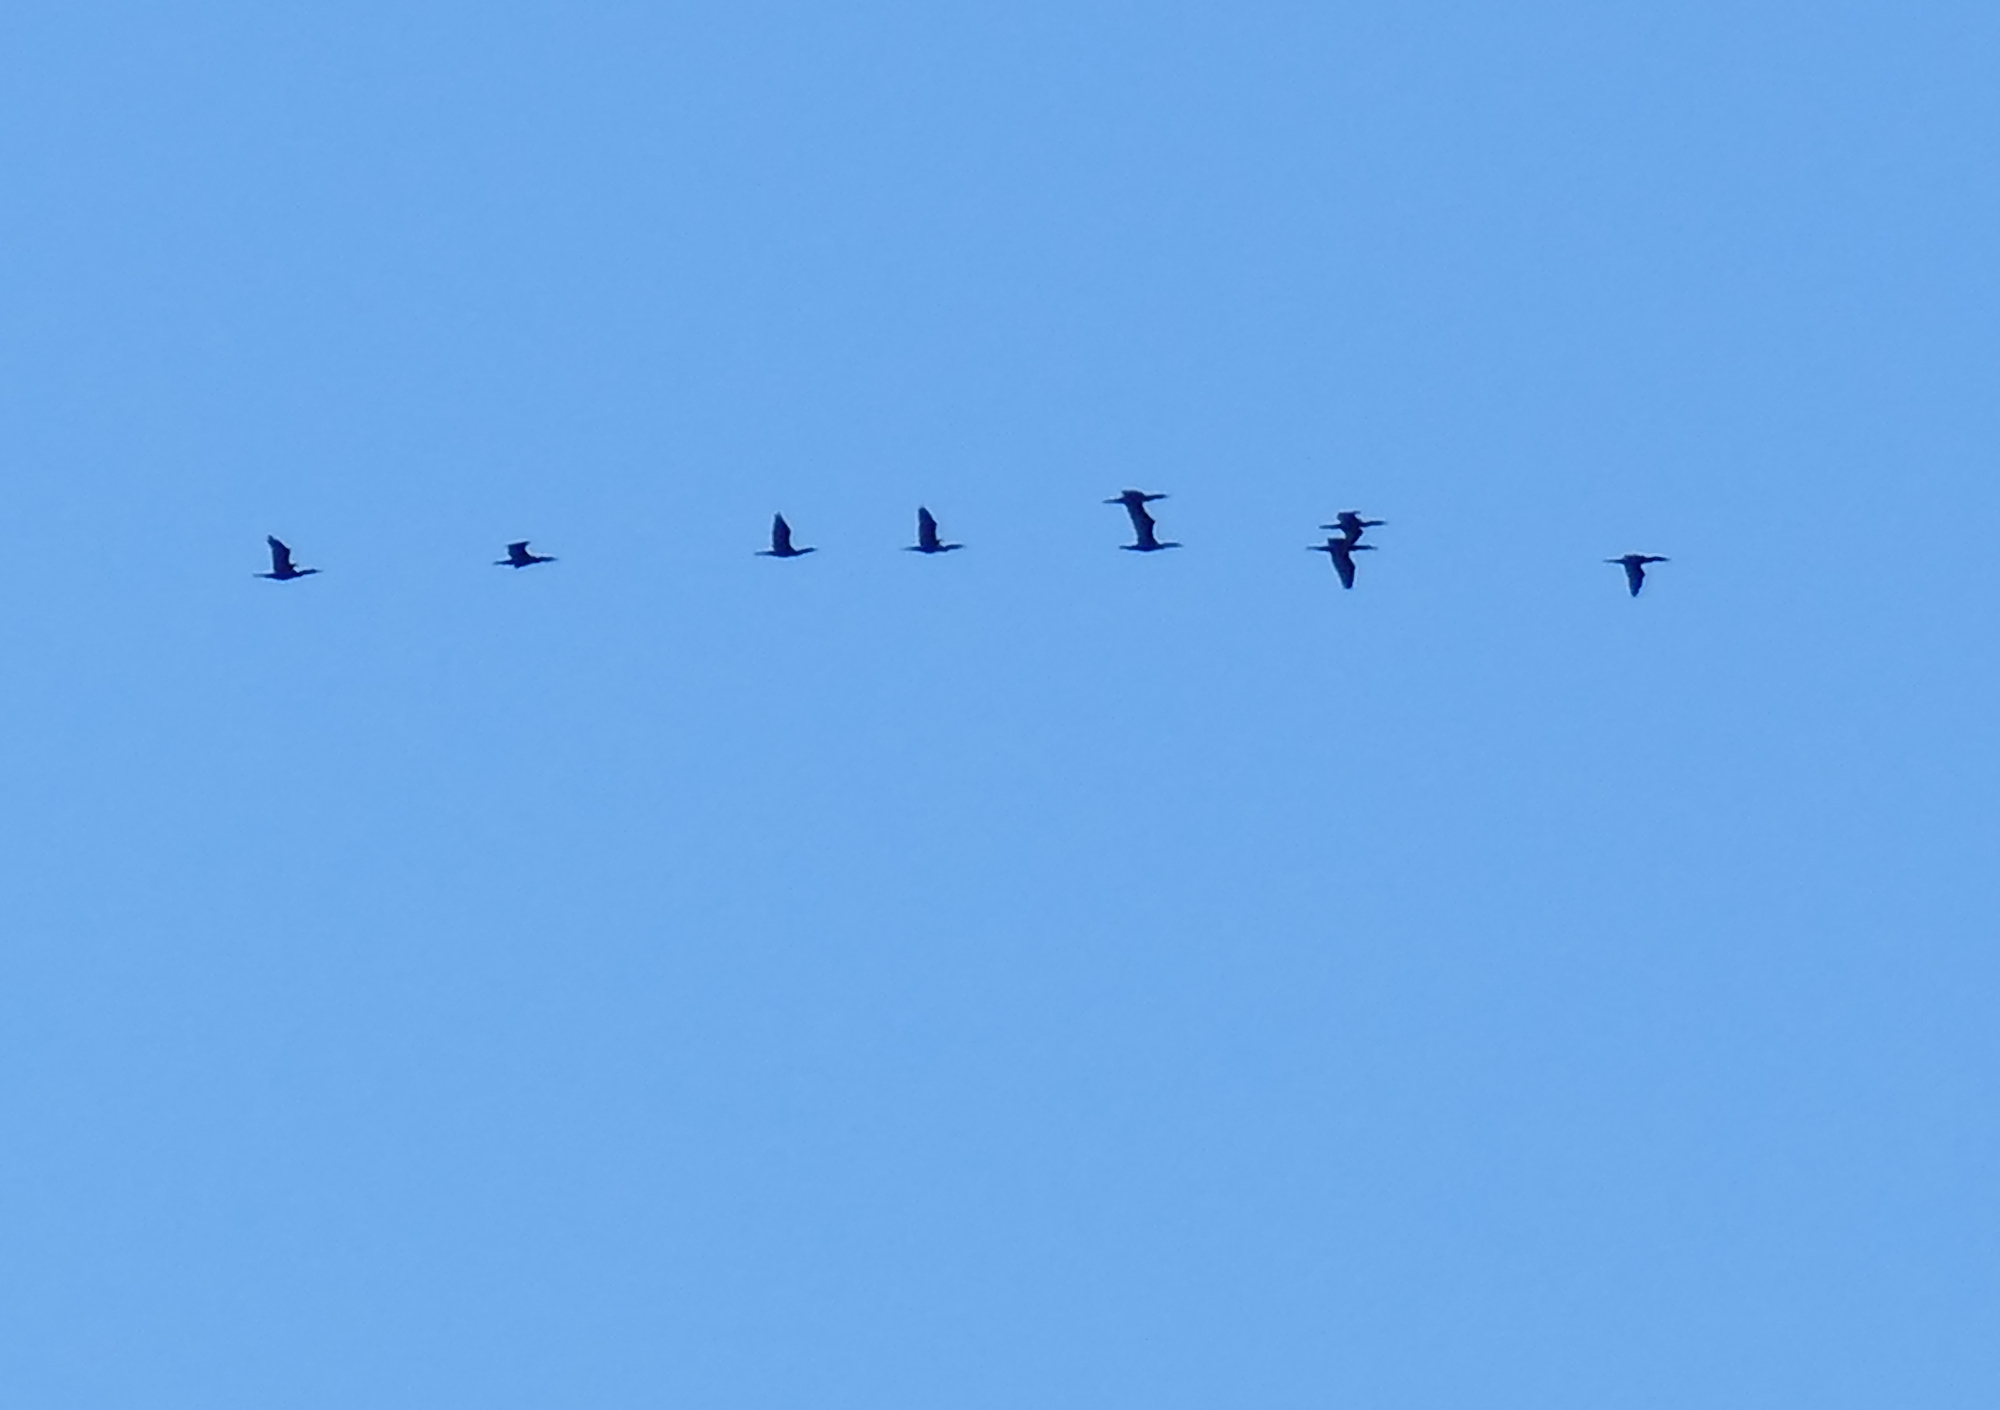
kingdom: Animalia
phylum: Chordata
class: Aves
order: Suliformes
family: Phalacrocoracidae
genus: Phalacrocorax
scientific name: Phalacrocorax auritus
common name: Double-crested cormorant
